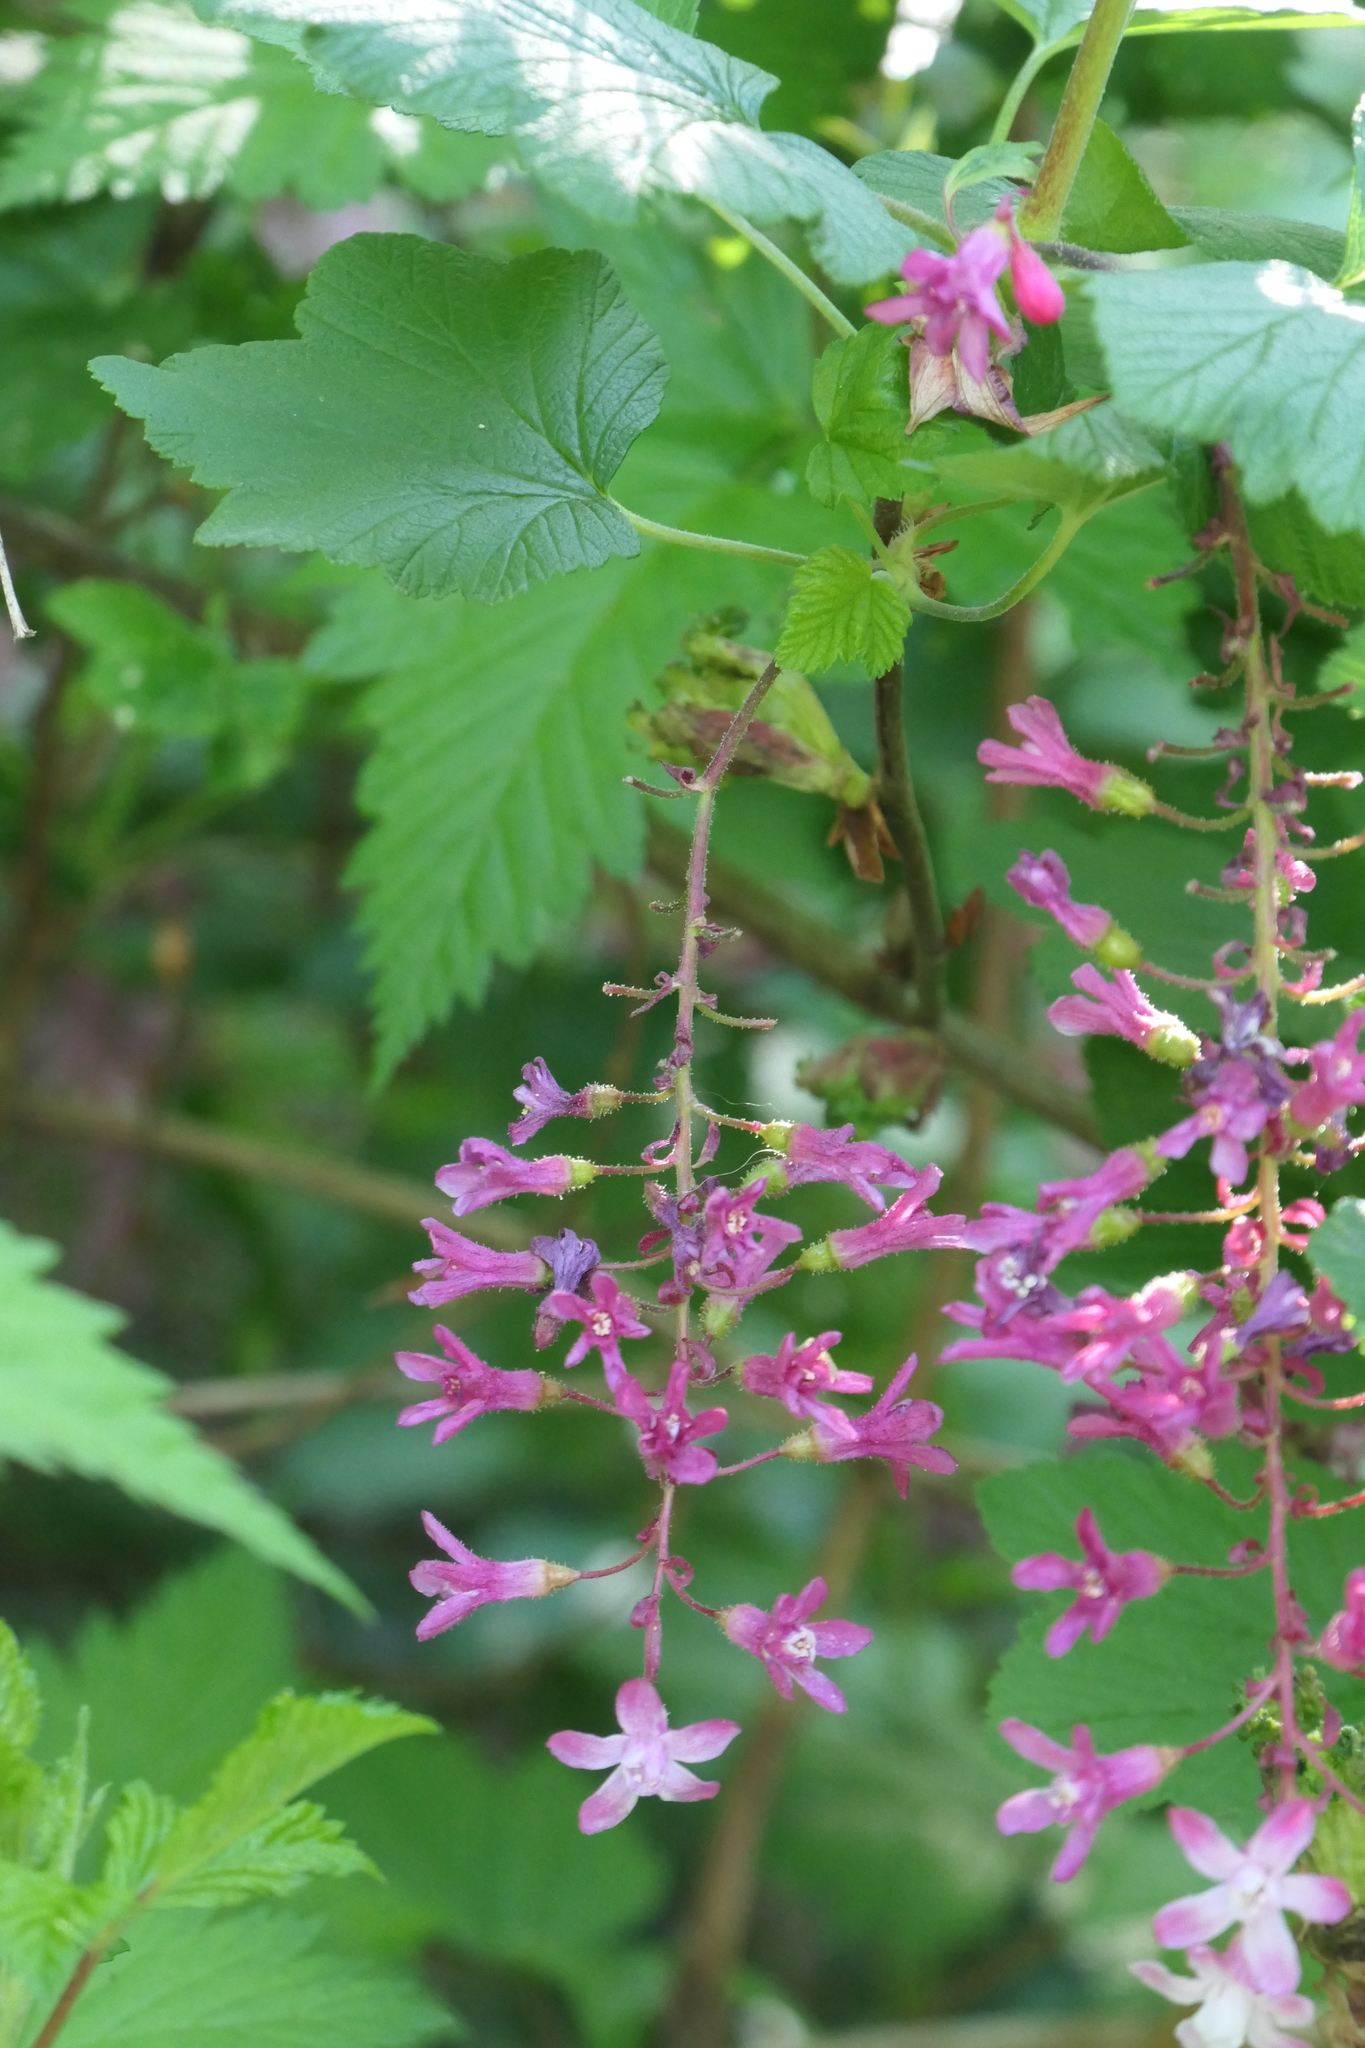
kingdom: Plantae
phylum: Tracheophyta
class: Magnoliopsida
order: Saxifragales
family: Grossulariaceae
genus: Ribes
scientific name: Ribes sanguineum
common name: Flowering currant
